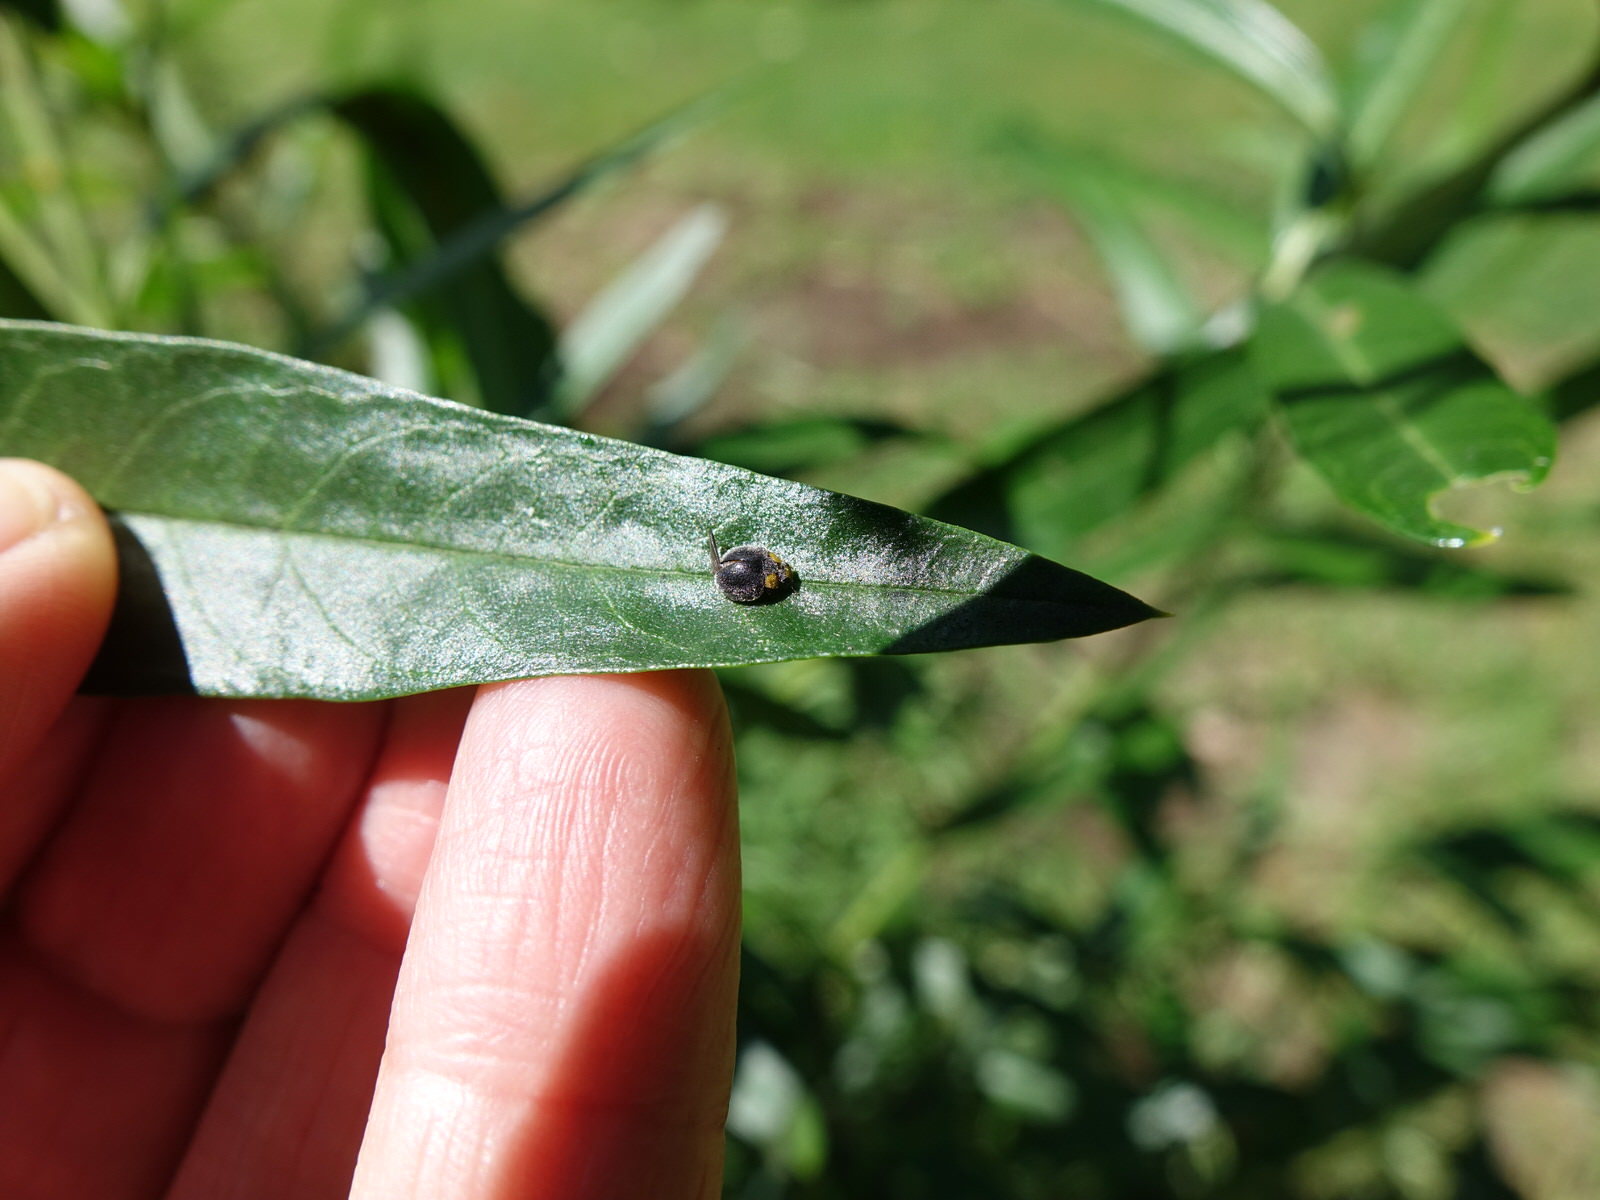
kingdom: Animalia
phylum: Arthropoda
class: Insecta
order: Coleoptera
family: Coccinellidae
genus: Scymnodes
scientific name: Scymnodes lividigaster
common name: Yellowshouldered lady beetle
